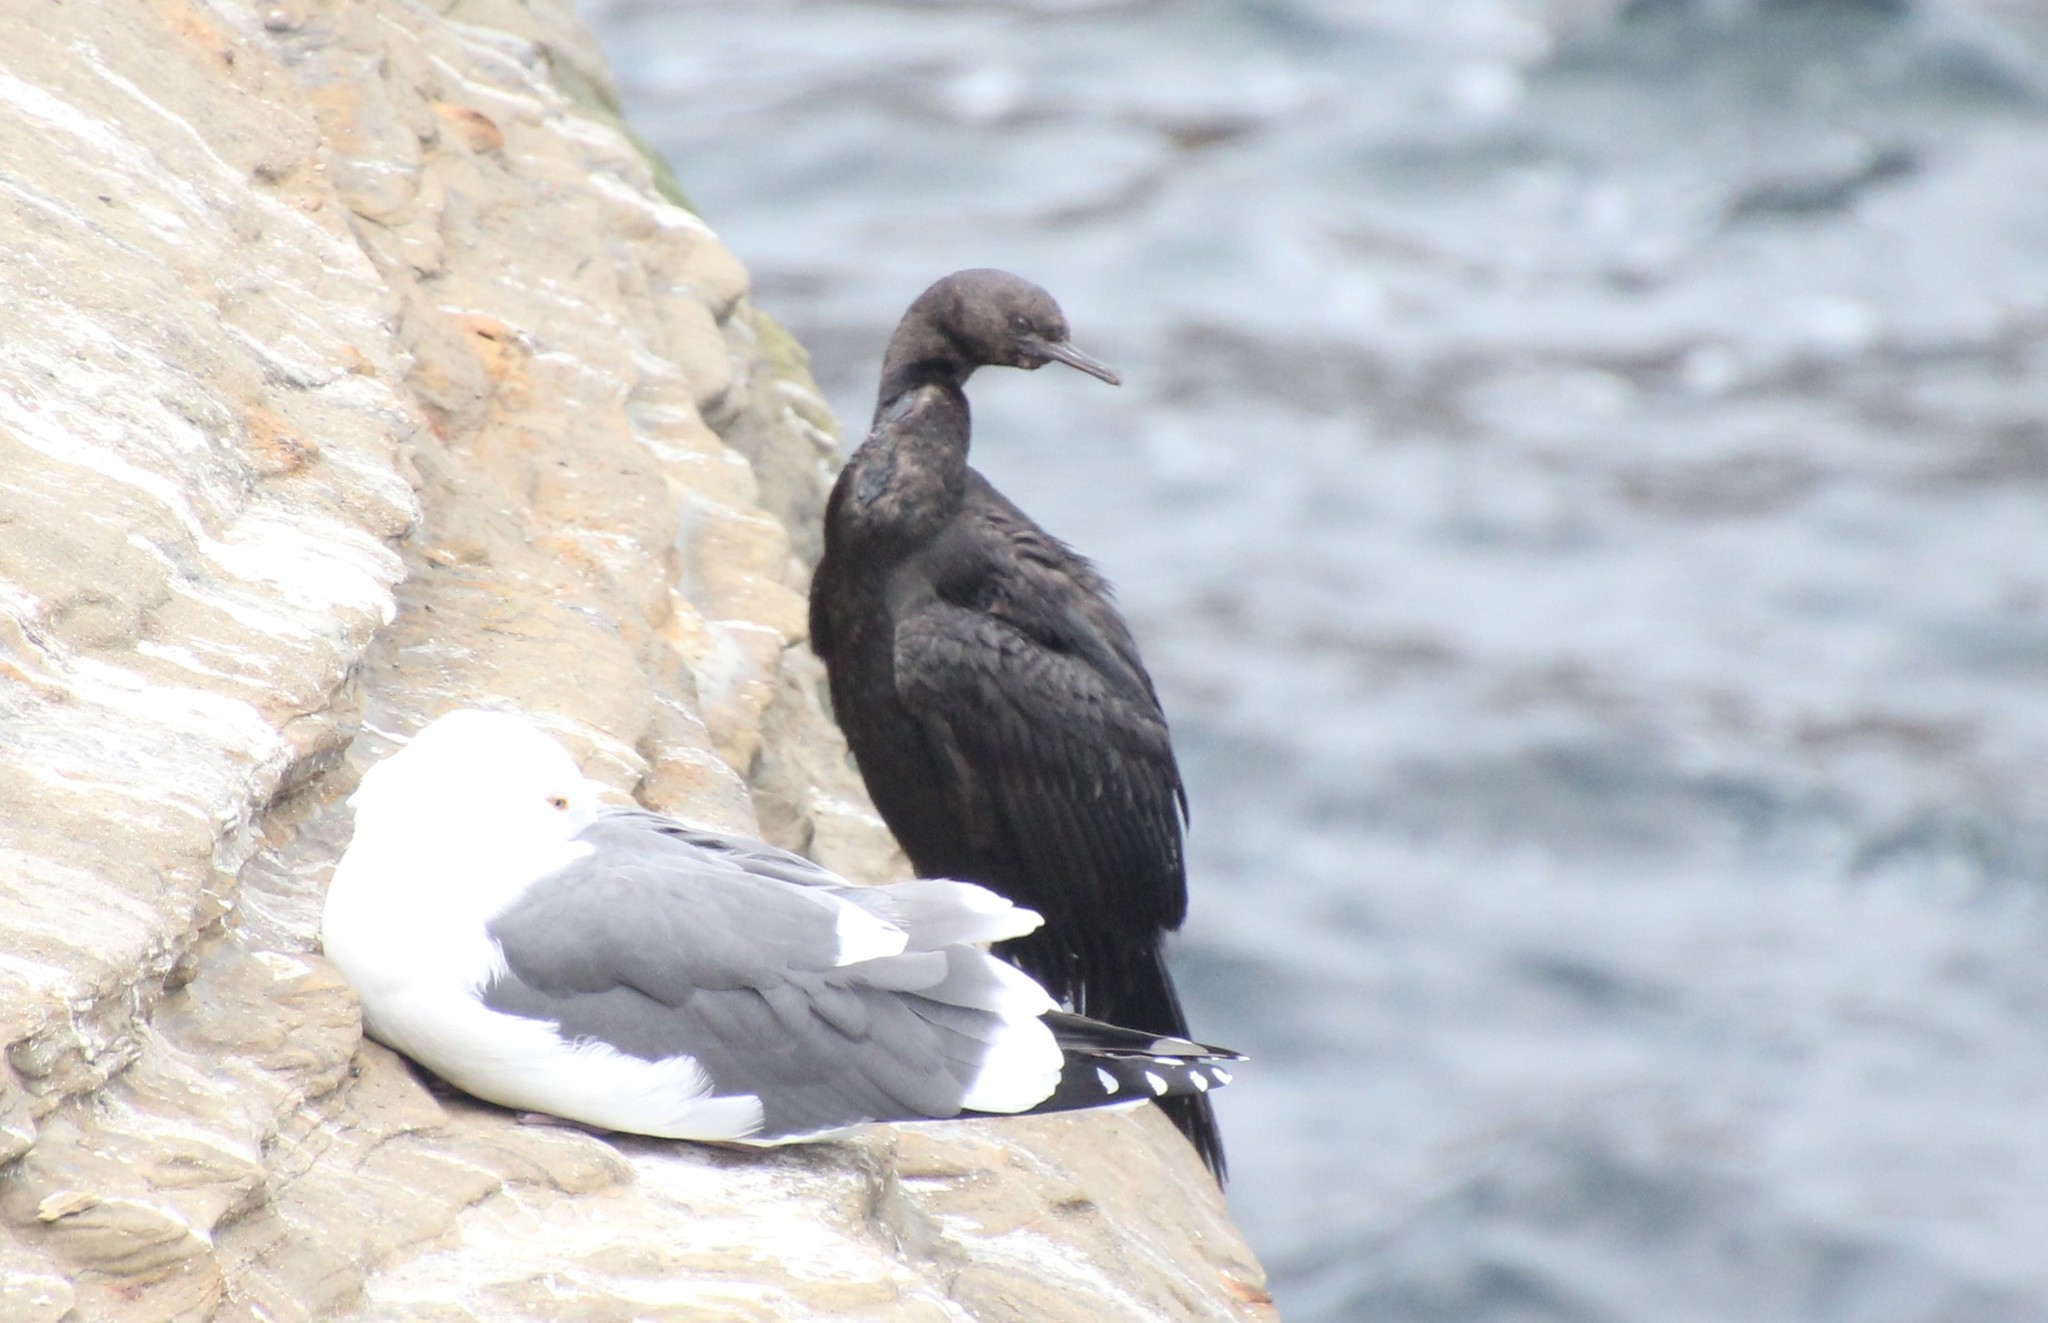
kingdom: Animalia
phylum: Chordata
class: Aves
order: Suliformes
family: Phalacrocoracidae
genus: Phalacrocorax
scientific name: Phalacrocorax pelagicus
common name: Pelagic cormorant
